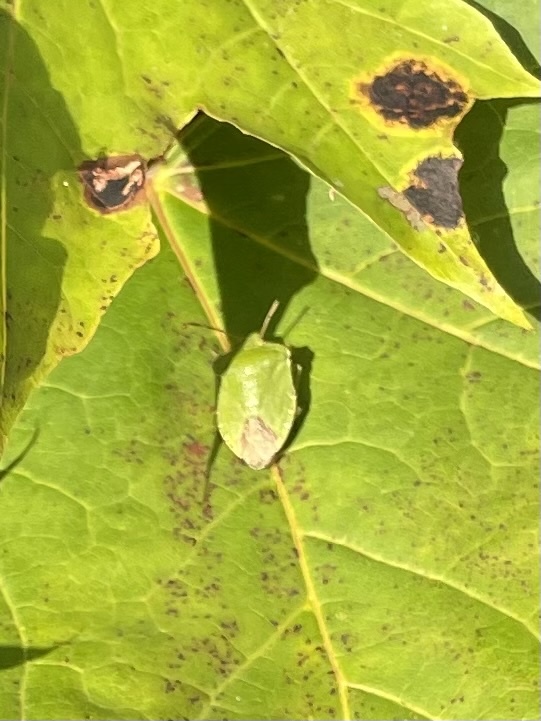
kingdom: Animalia
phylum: Arthropoda
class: Insecta
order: Hemiptera
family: Pentatomidae
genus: Palomena
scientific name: Palomena prasina
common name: Green shieldbug
